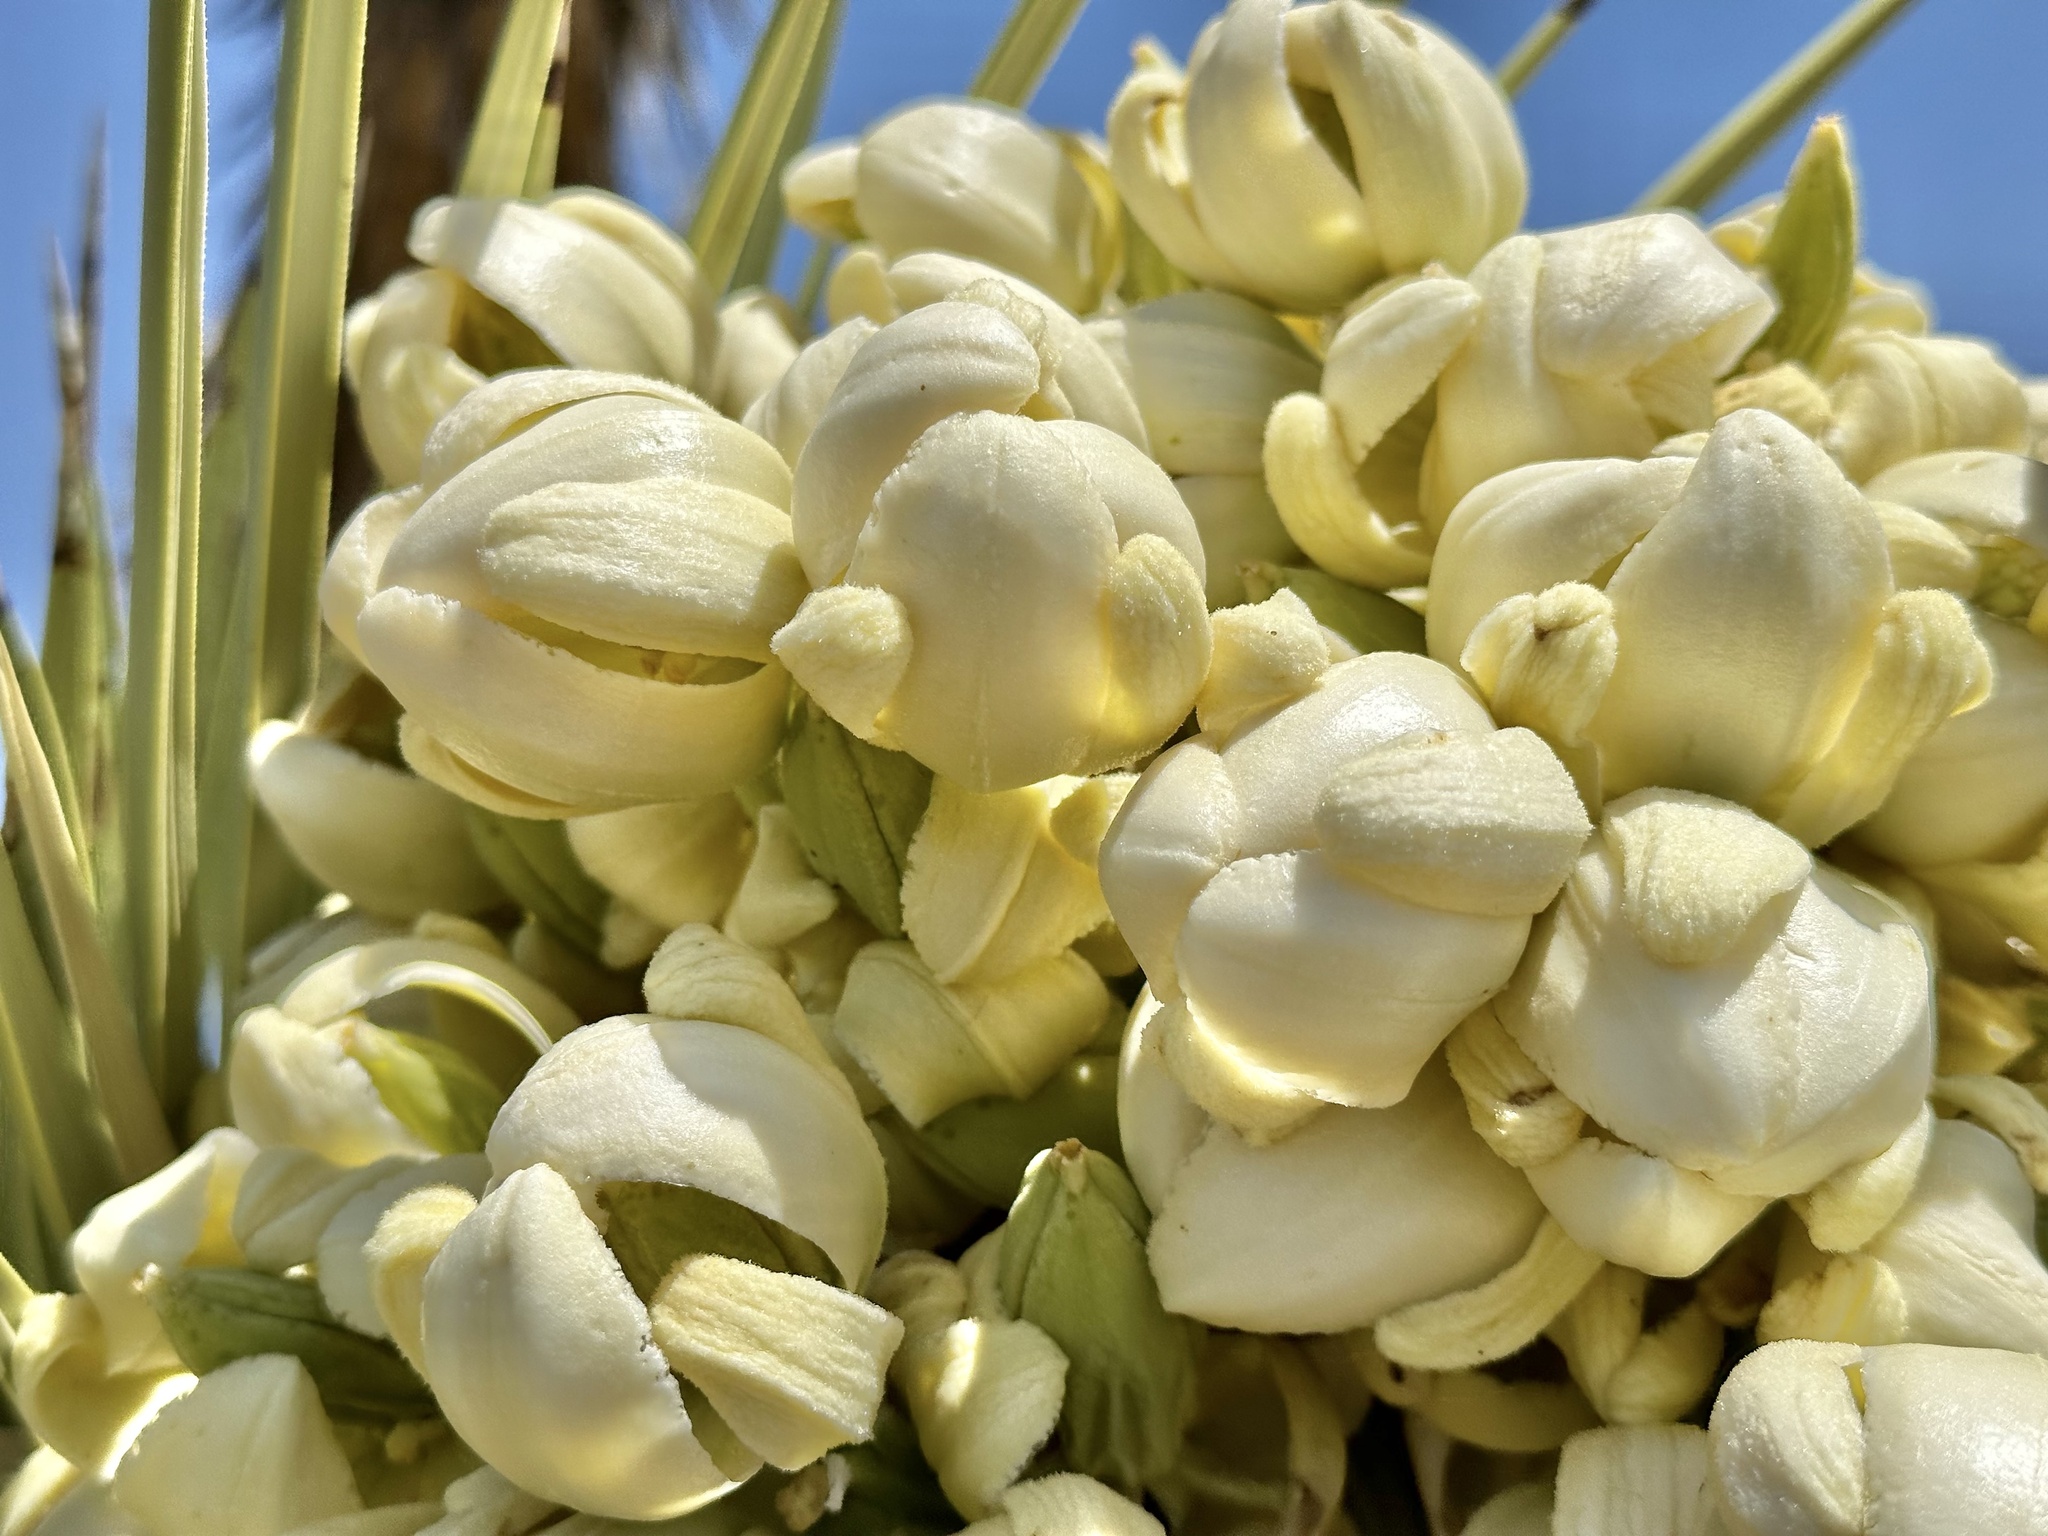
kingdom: Plantae
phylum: Tracheophyta
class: Liliopsida
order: Asparagales
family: Asparagaceae
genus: Yucca
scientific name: Yucca brevifolia
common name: Joshua tree
